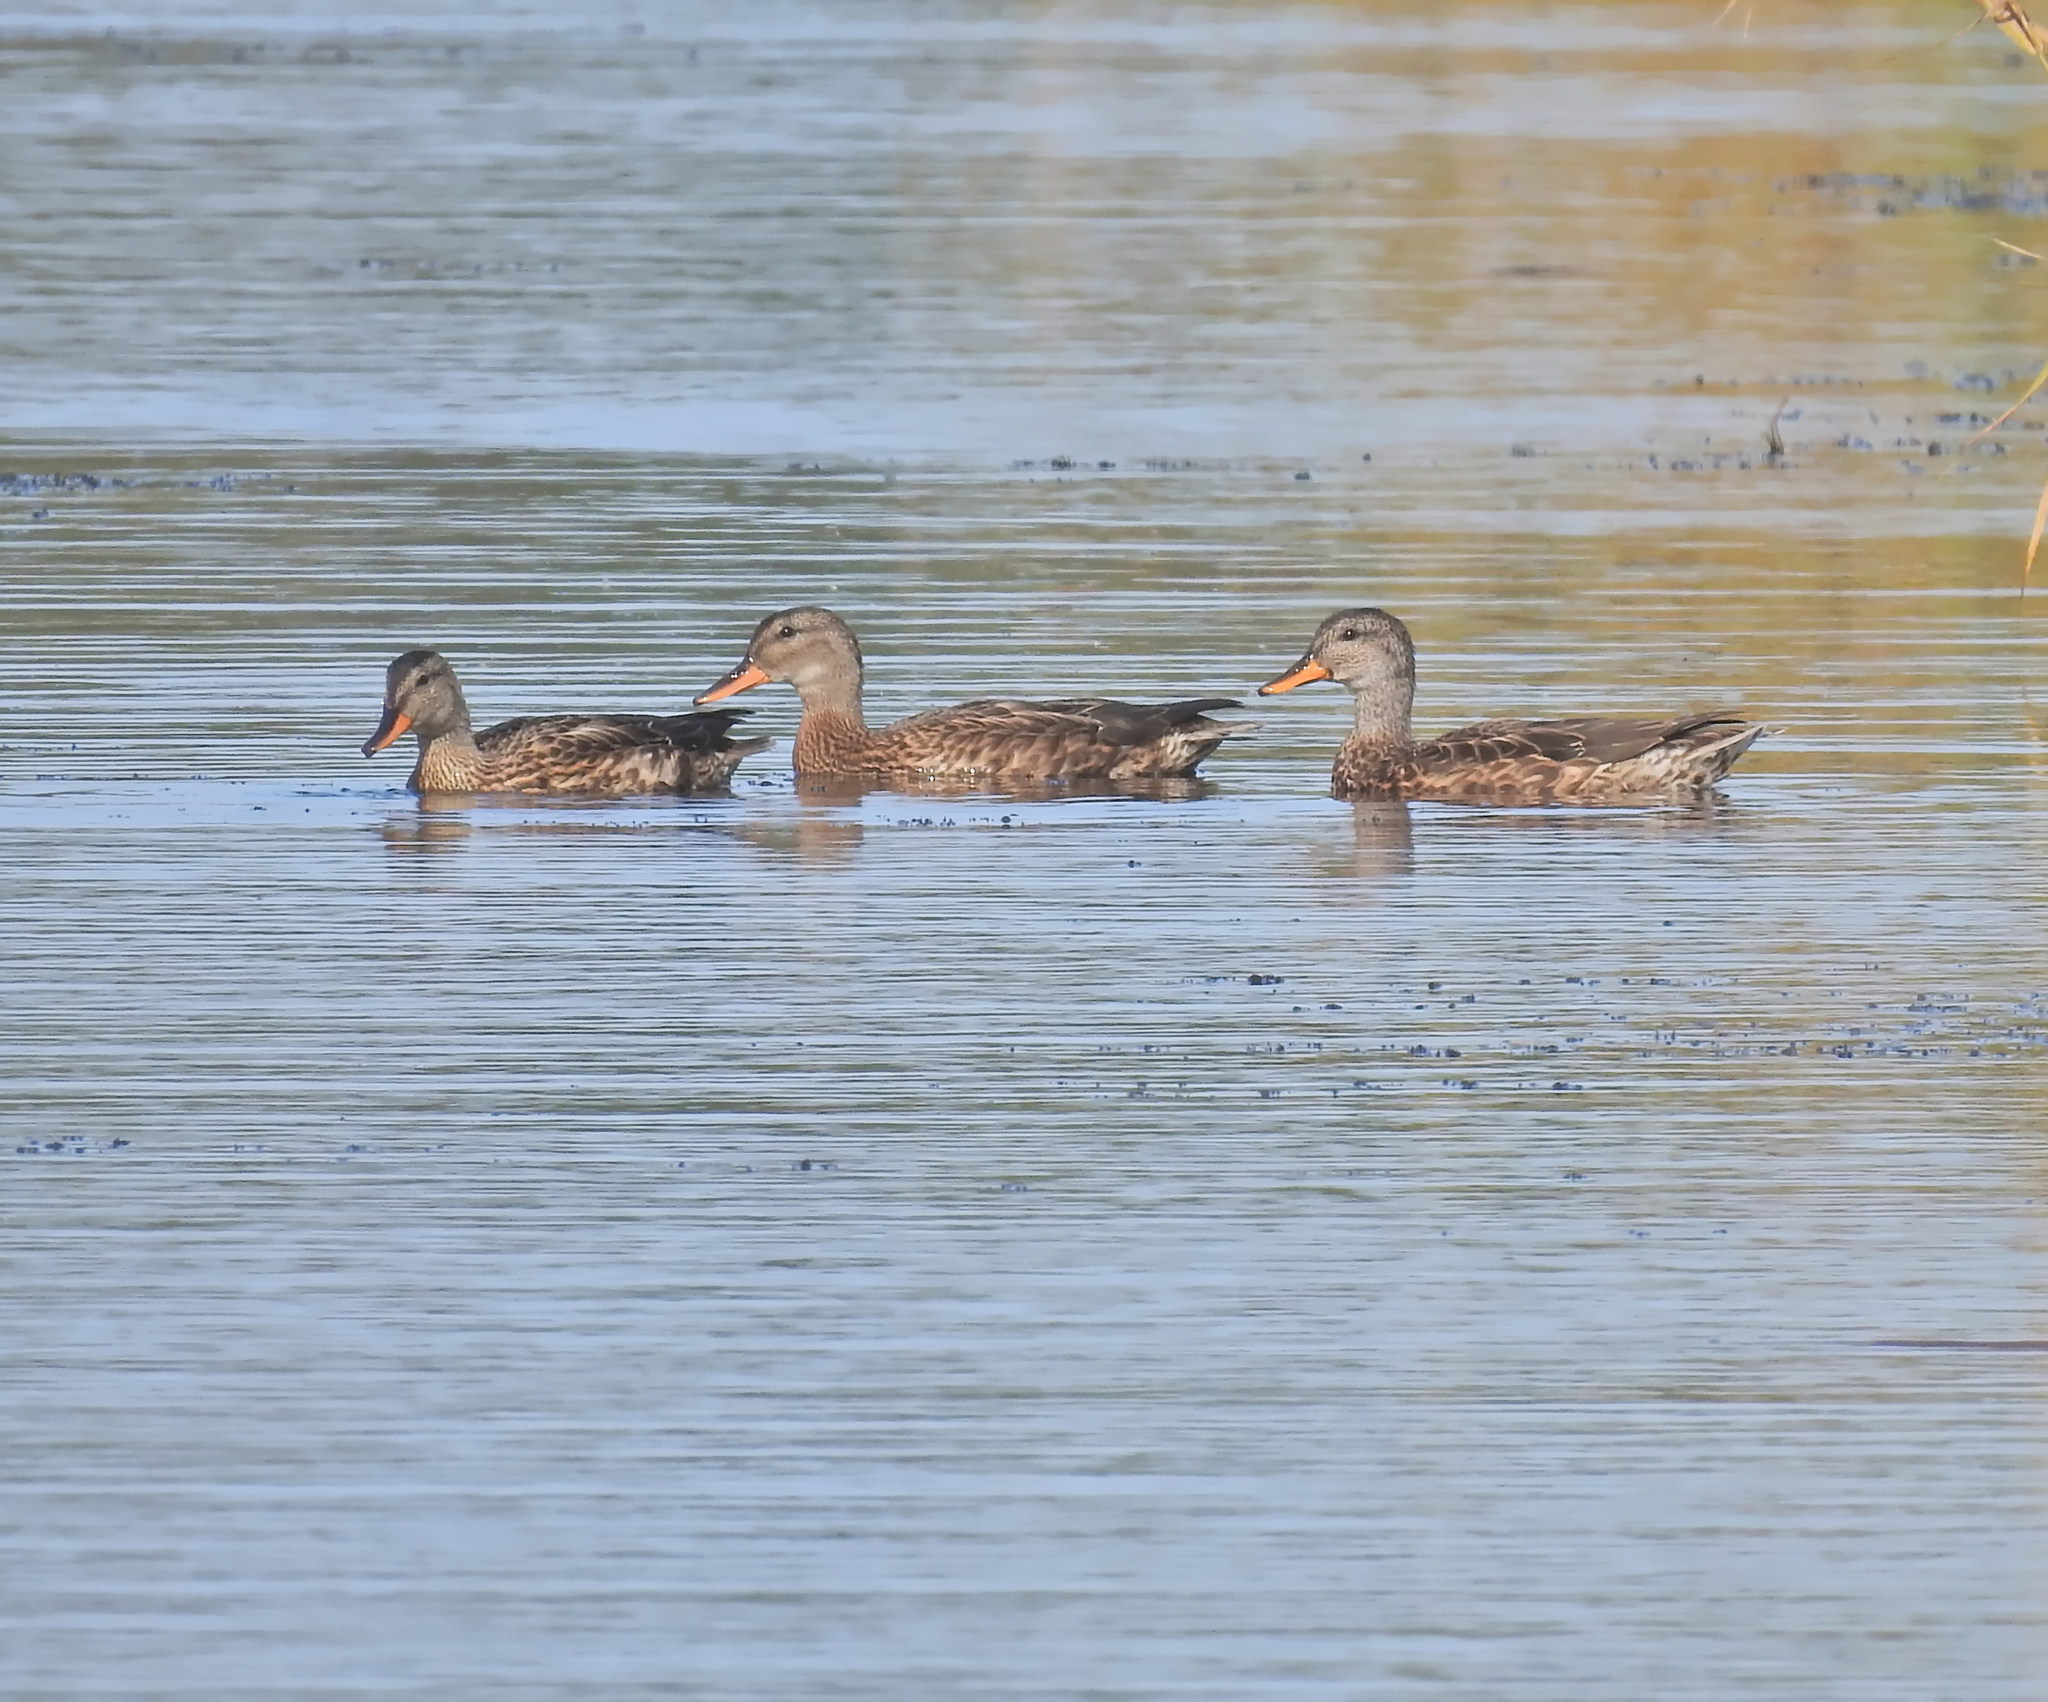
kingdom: Animalia
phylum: Chordata
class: Aves
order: Anseriformes
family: Anatidae
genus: Mareca
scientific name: Mareca strepera
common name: Gadwall
